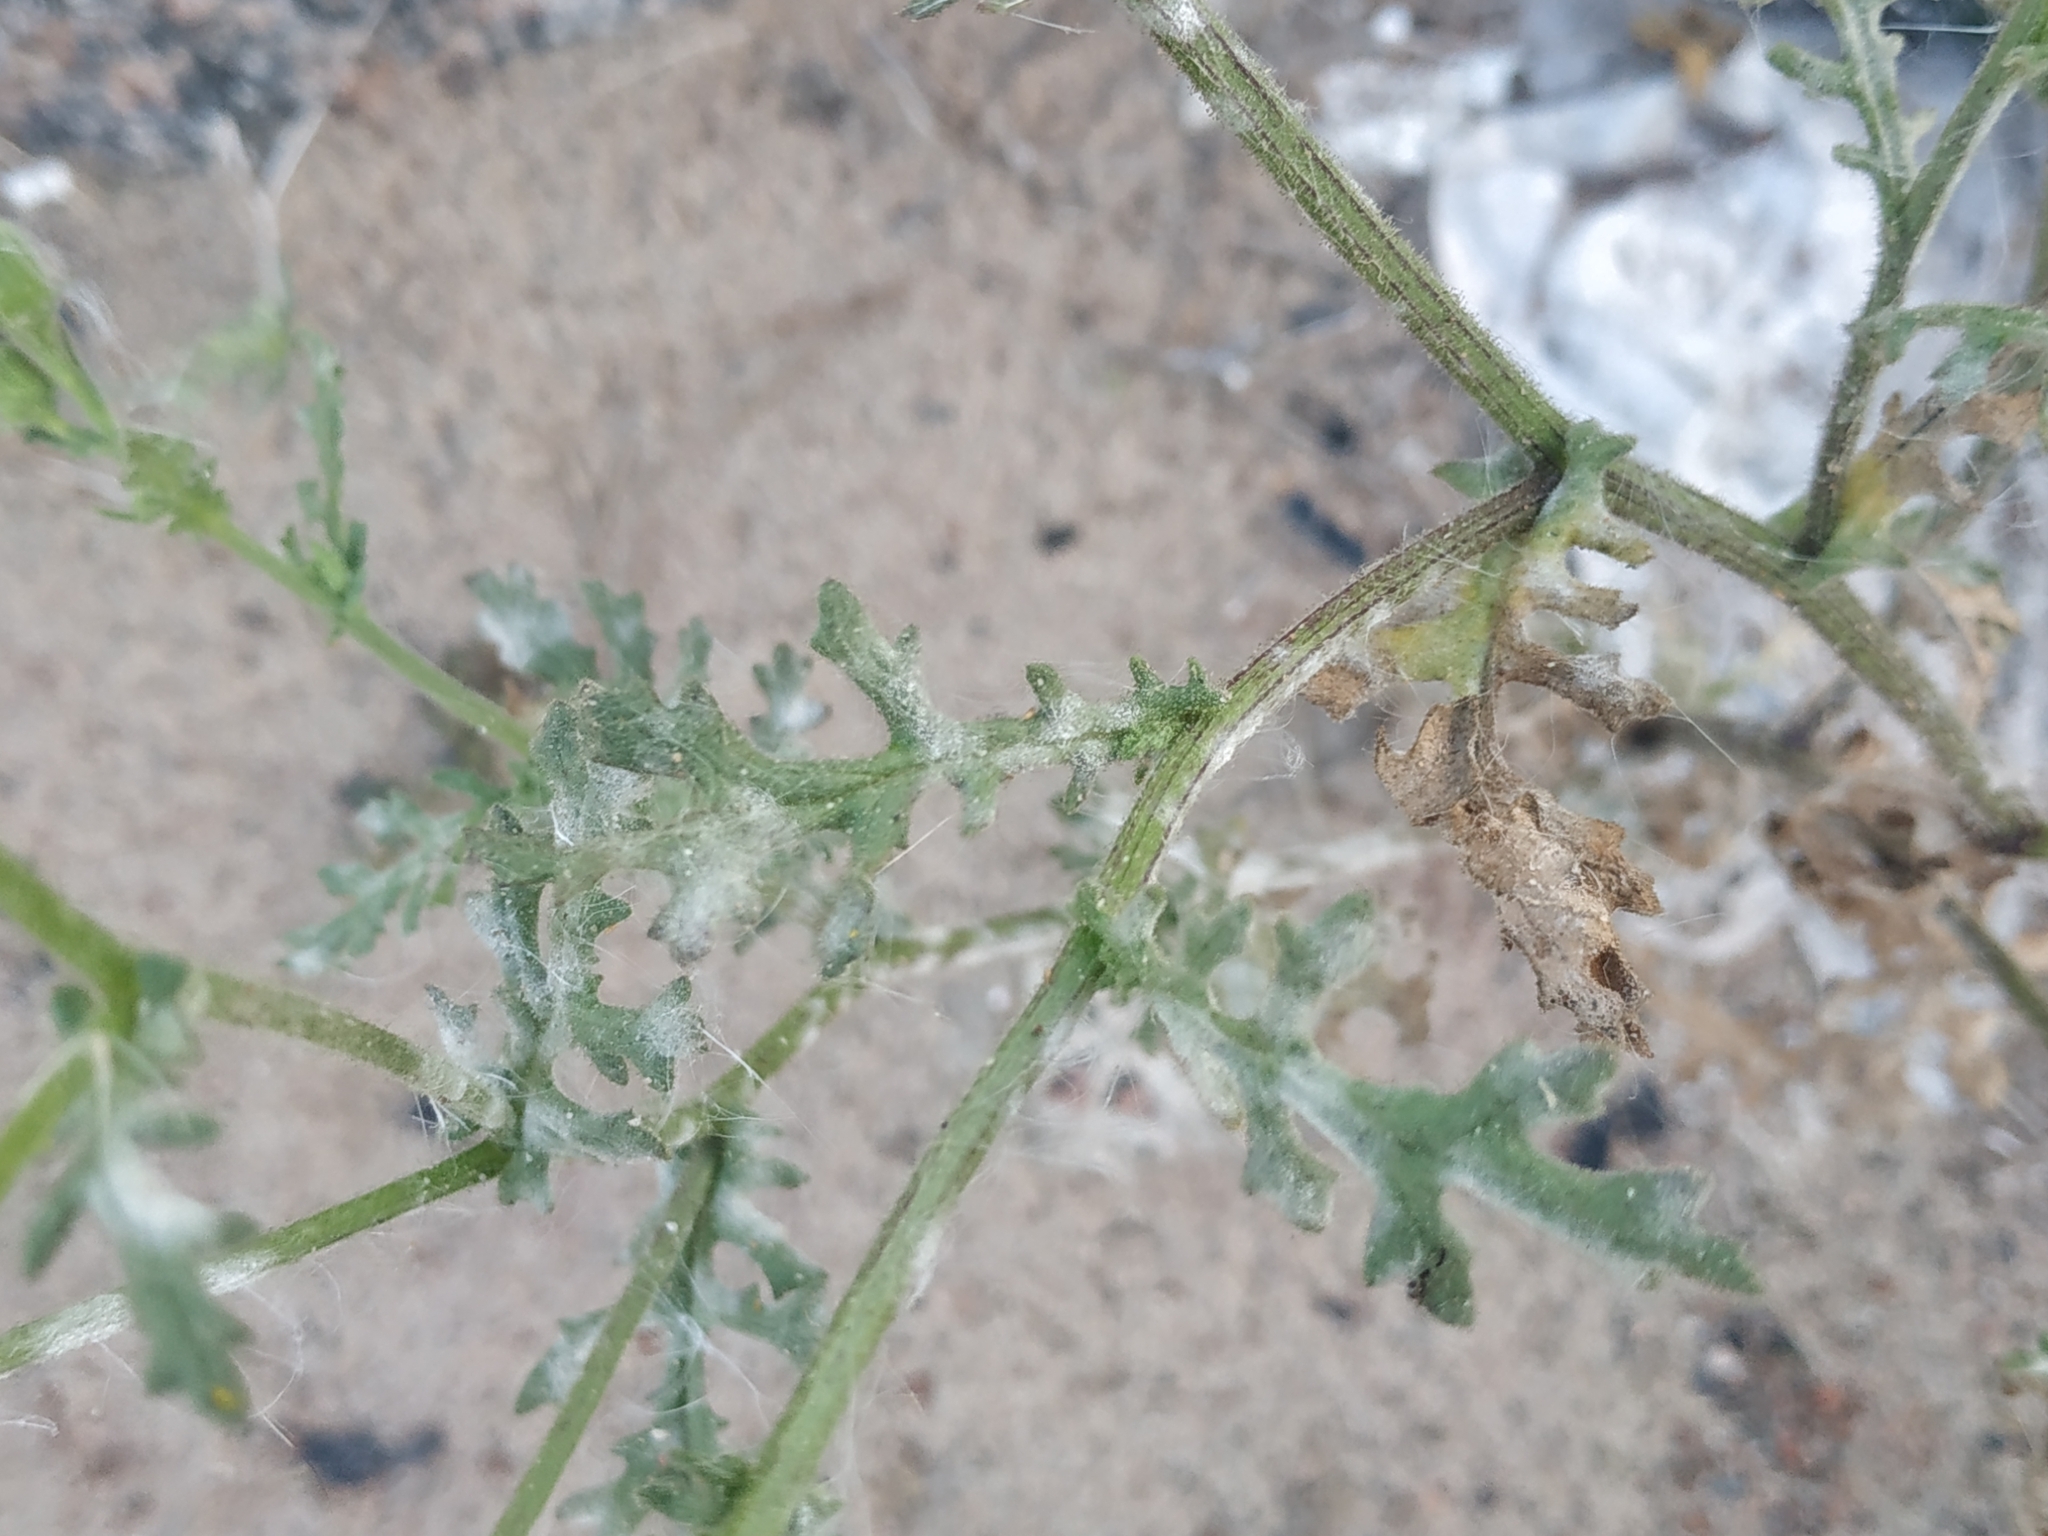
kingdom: Plantae
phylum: Tracheophyta
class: Magnoliopsida
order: Asterales
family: Asteraceae
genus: Senecio
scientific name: Senecio viscosus
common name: Sticky groundsel
